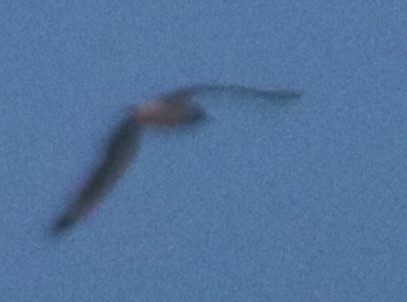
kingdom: Animalia
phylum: Chordata
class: Aves
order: Charadriiformes
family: Laridae
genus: Leucophaeus
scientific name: Leucophaeus pipixcan
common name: Franklin's gull
